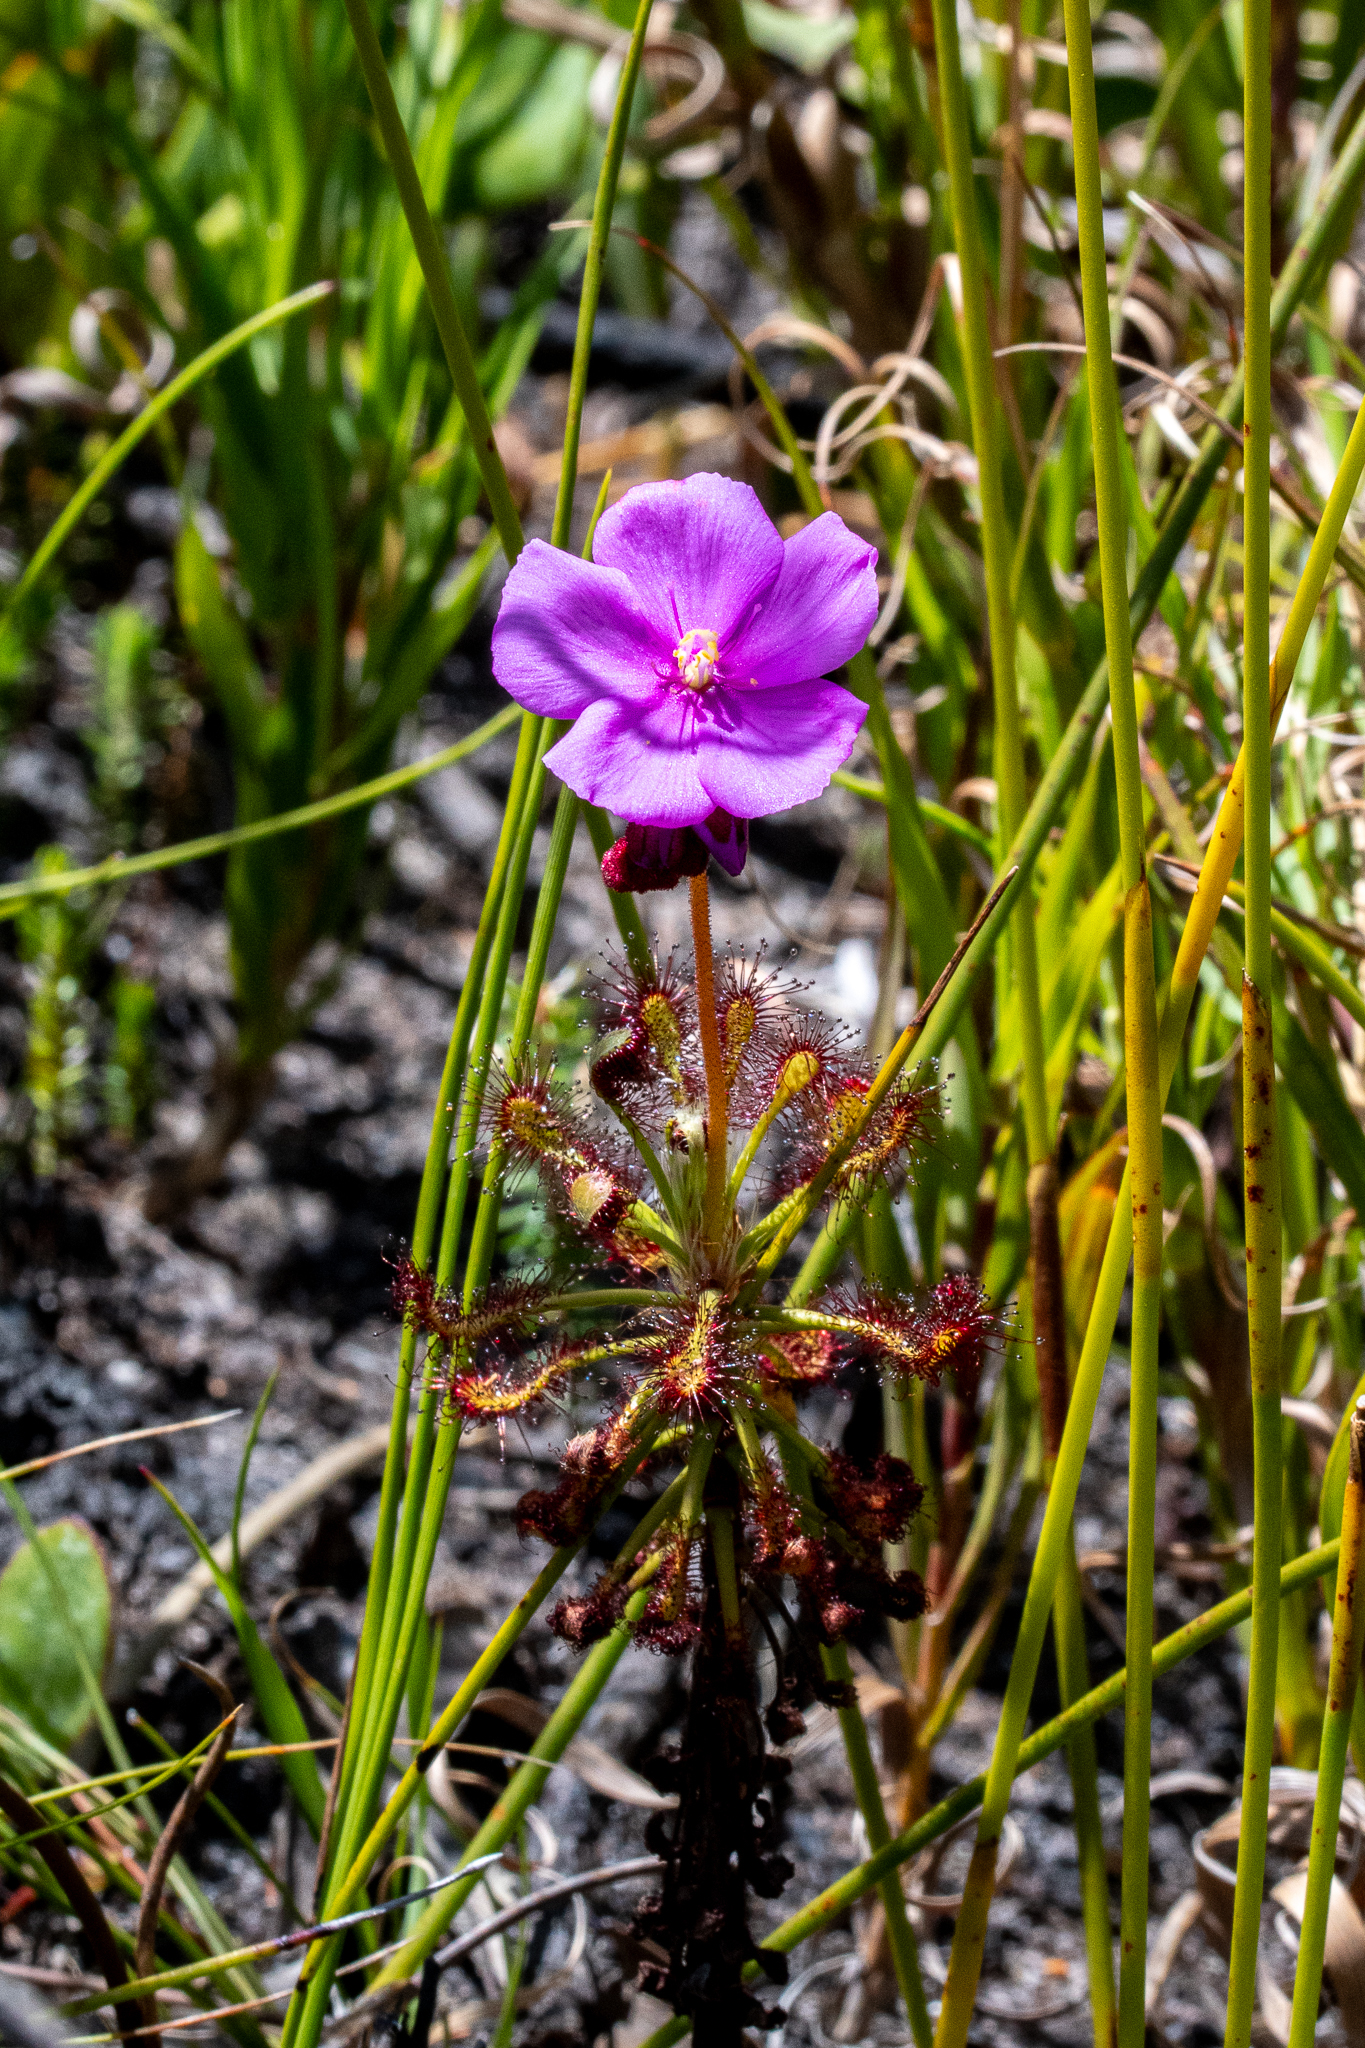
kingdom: Plantae
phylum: Tracheophyta
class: Magnoliopsida
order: Caryophyllales
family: Droseraceae
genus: Drosera
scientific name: Drosera glabripes
